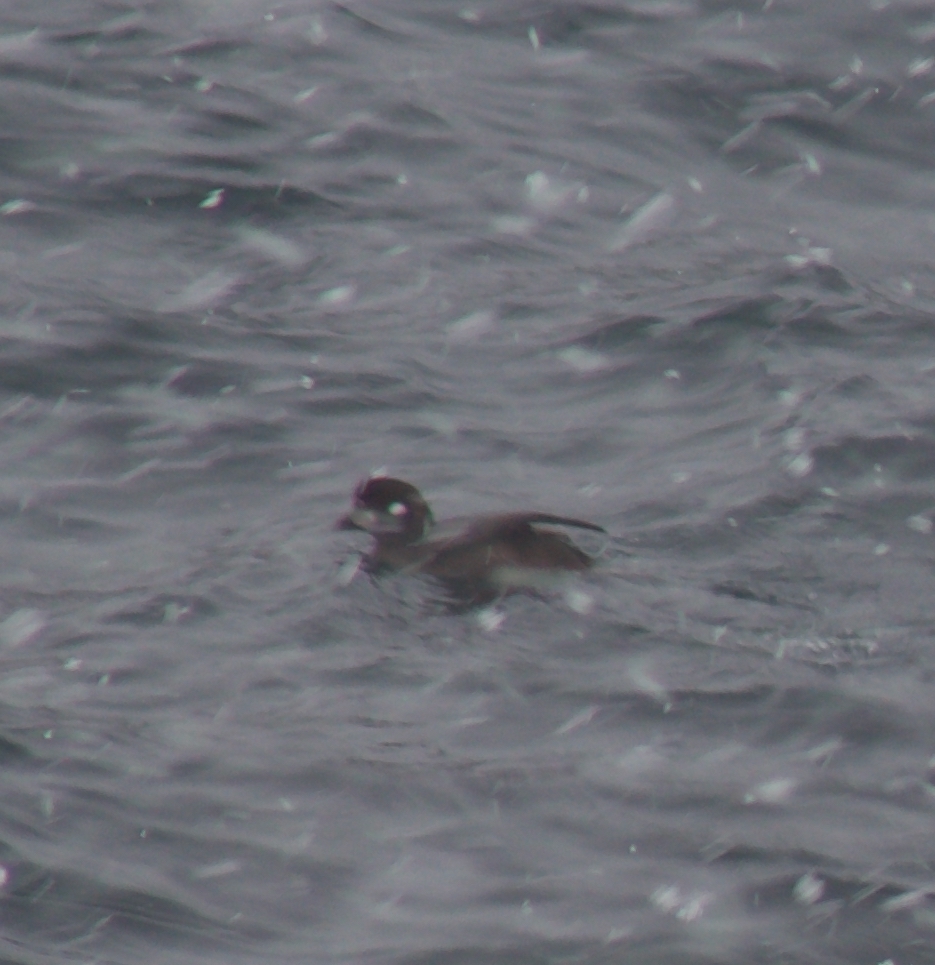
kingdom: Animalia
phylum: Chordata
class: Aves
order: Anseriformes
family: Anatidae
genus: Histrionicus
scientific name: Histrionicus histrionicus
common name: Harlequin duck
